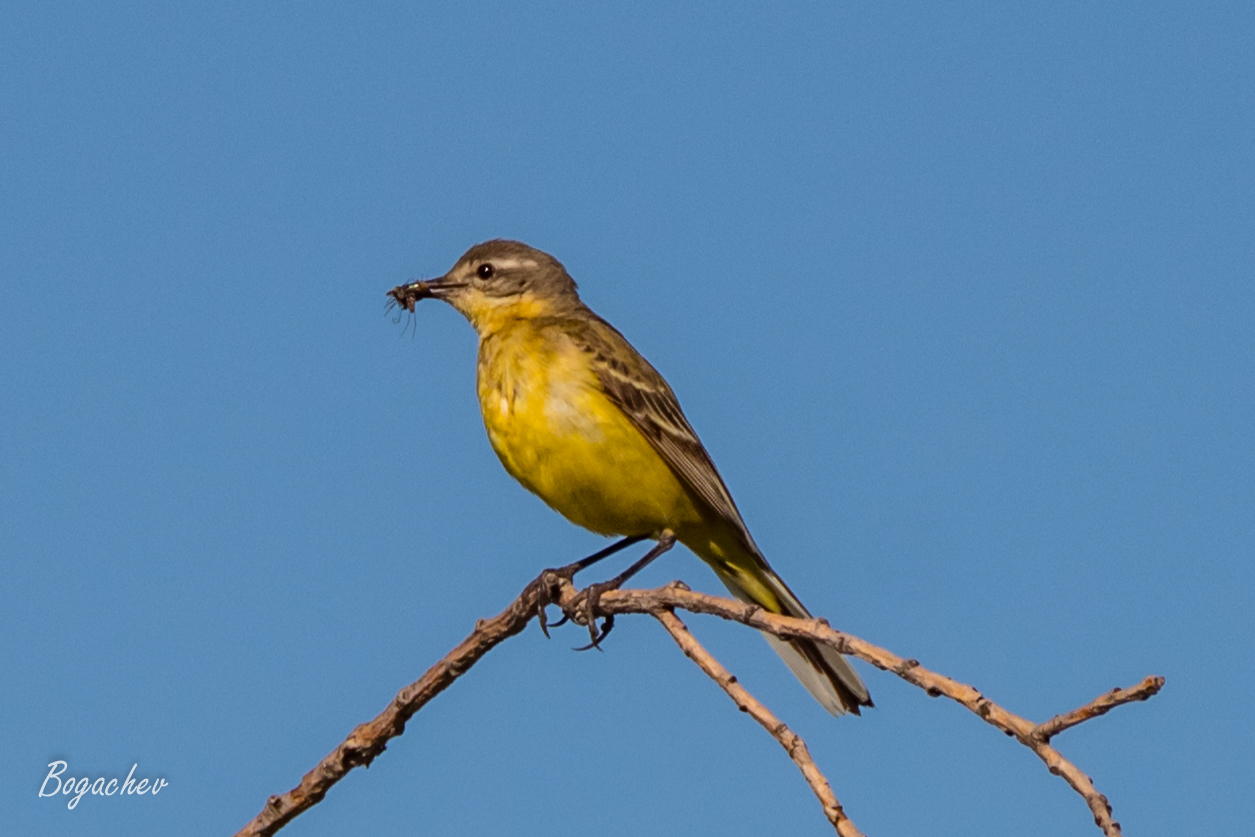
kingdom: Animalia
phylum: Chordata
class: Aves
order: Passeriformes
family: Motacillidae
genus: Motacilla
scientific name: Motacilla flava
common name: Western yellow wagtail
